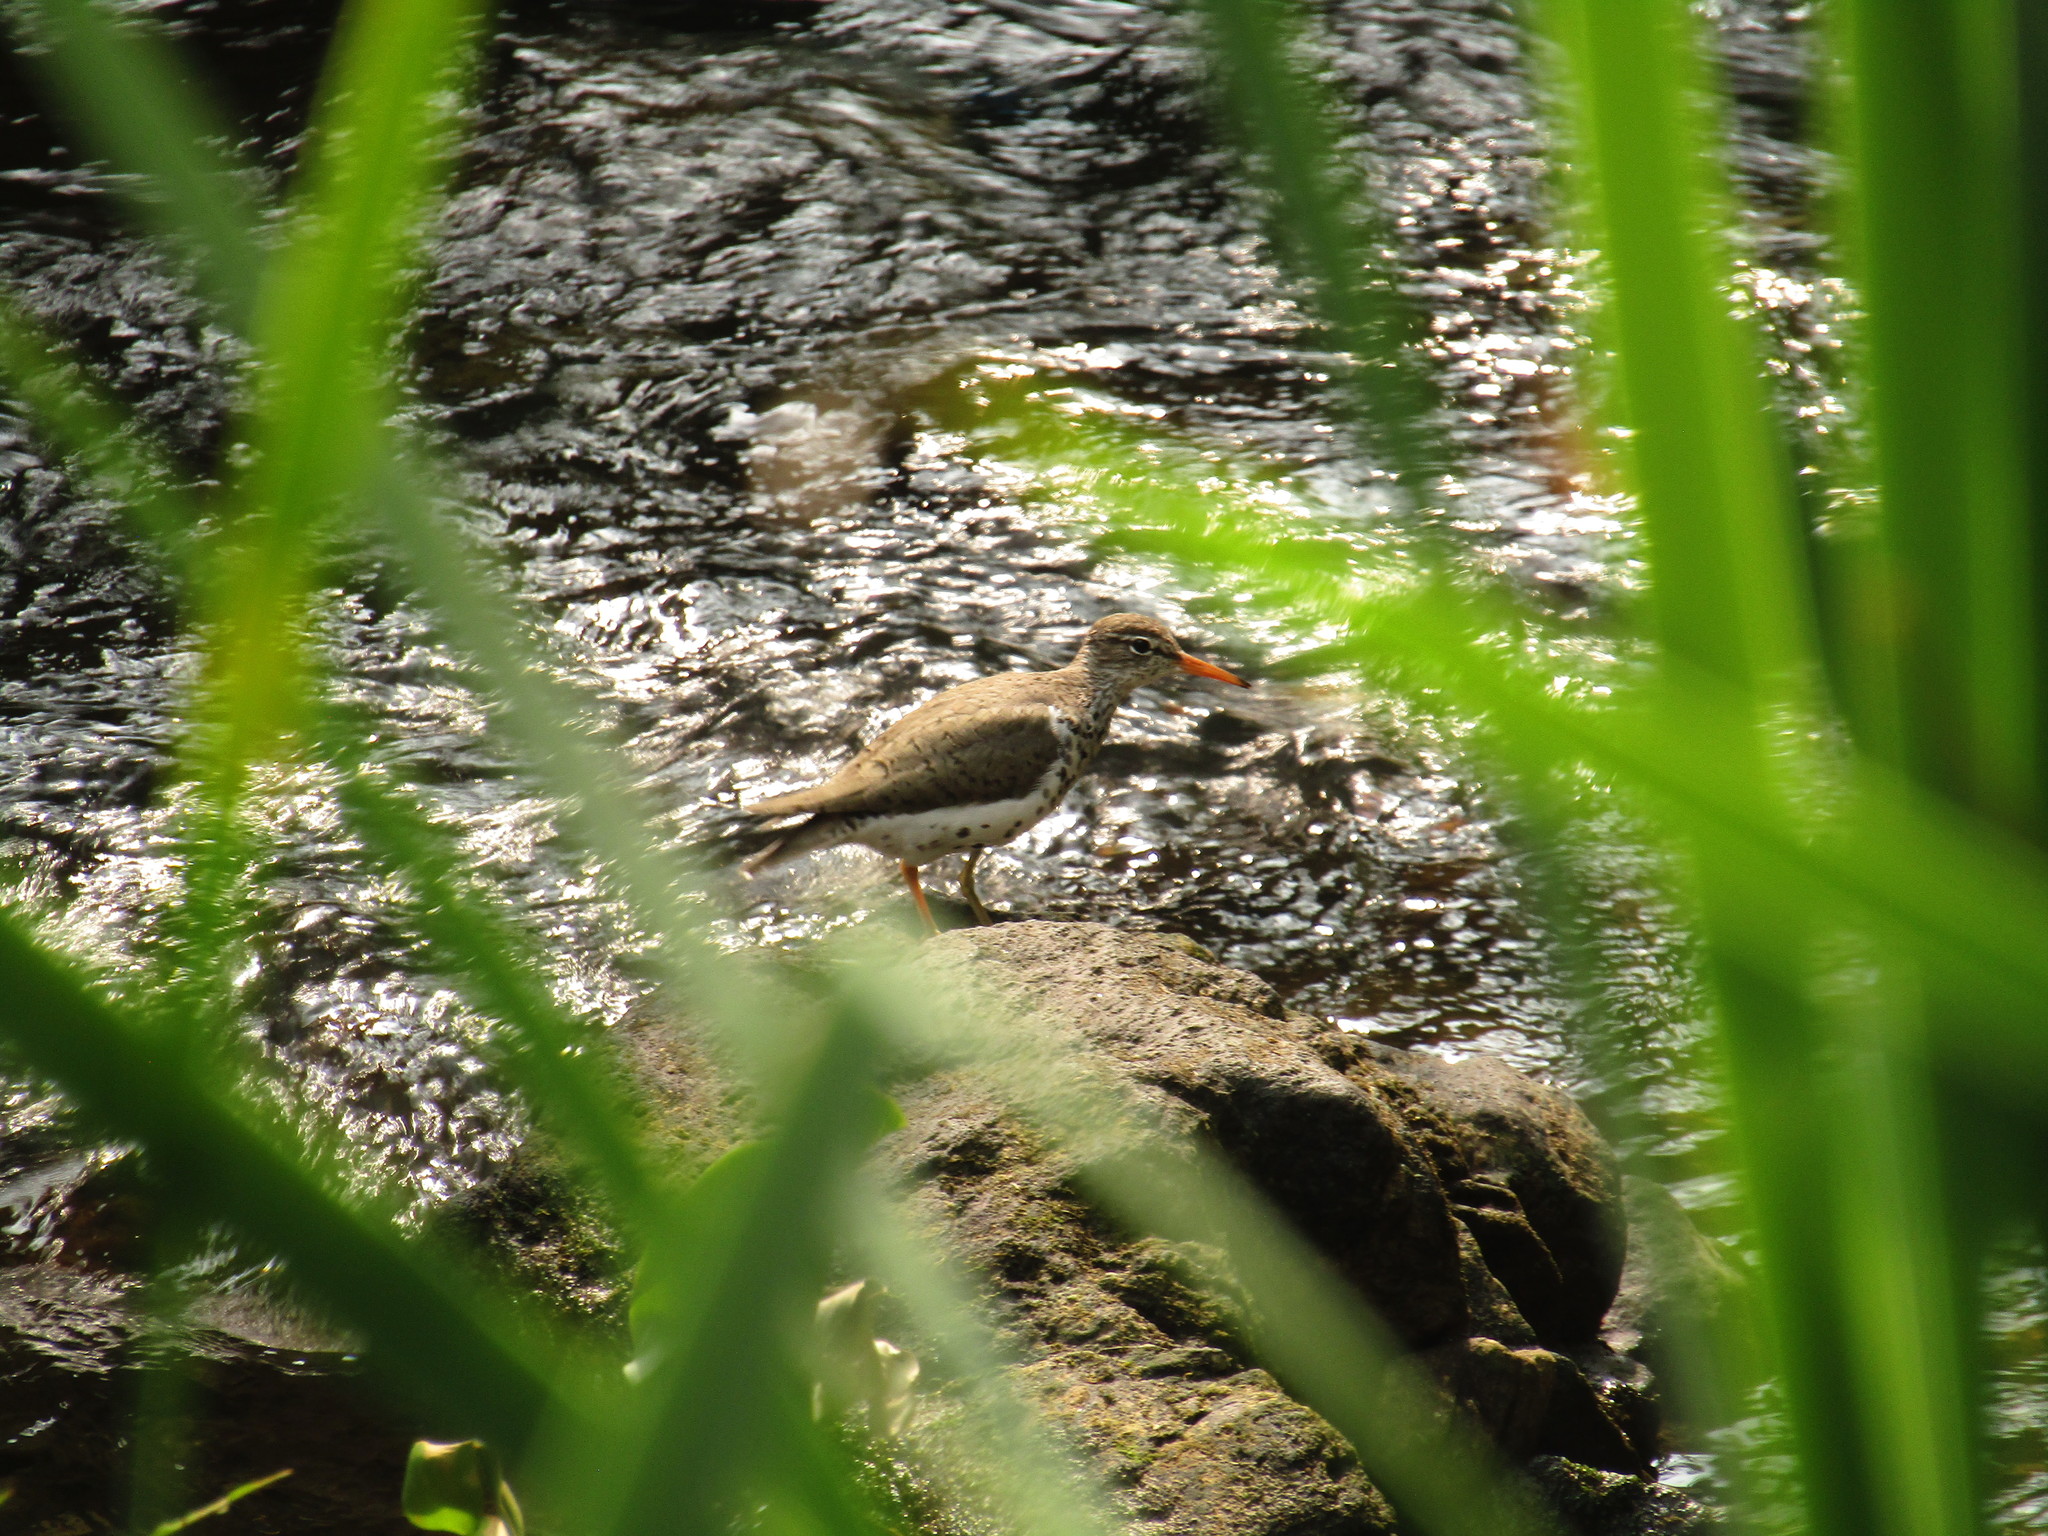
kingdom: Animalia
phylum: Chordata
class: Aves
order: Charadriiformes
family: Scolopacidae
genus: Actitis
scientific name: Actitis macularius
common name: Spotted sandpiper
